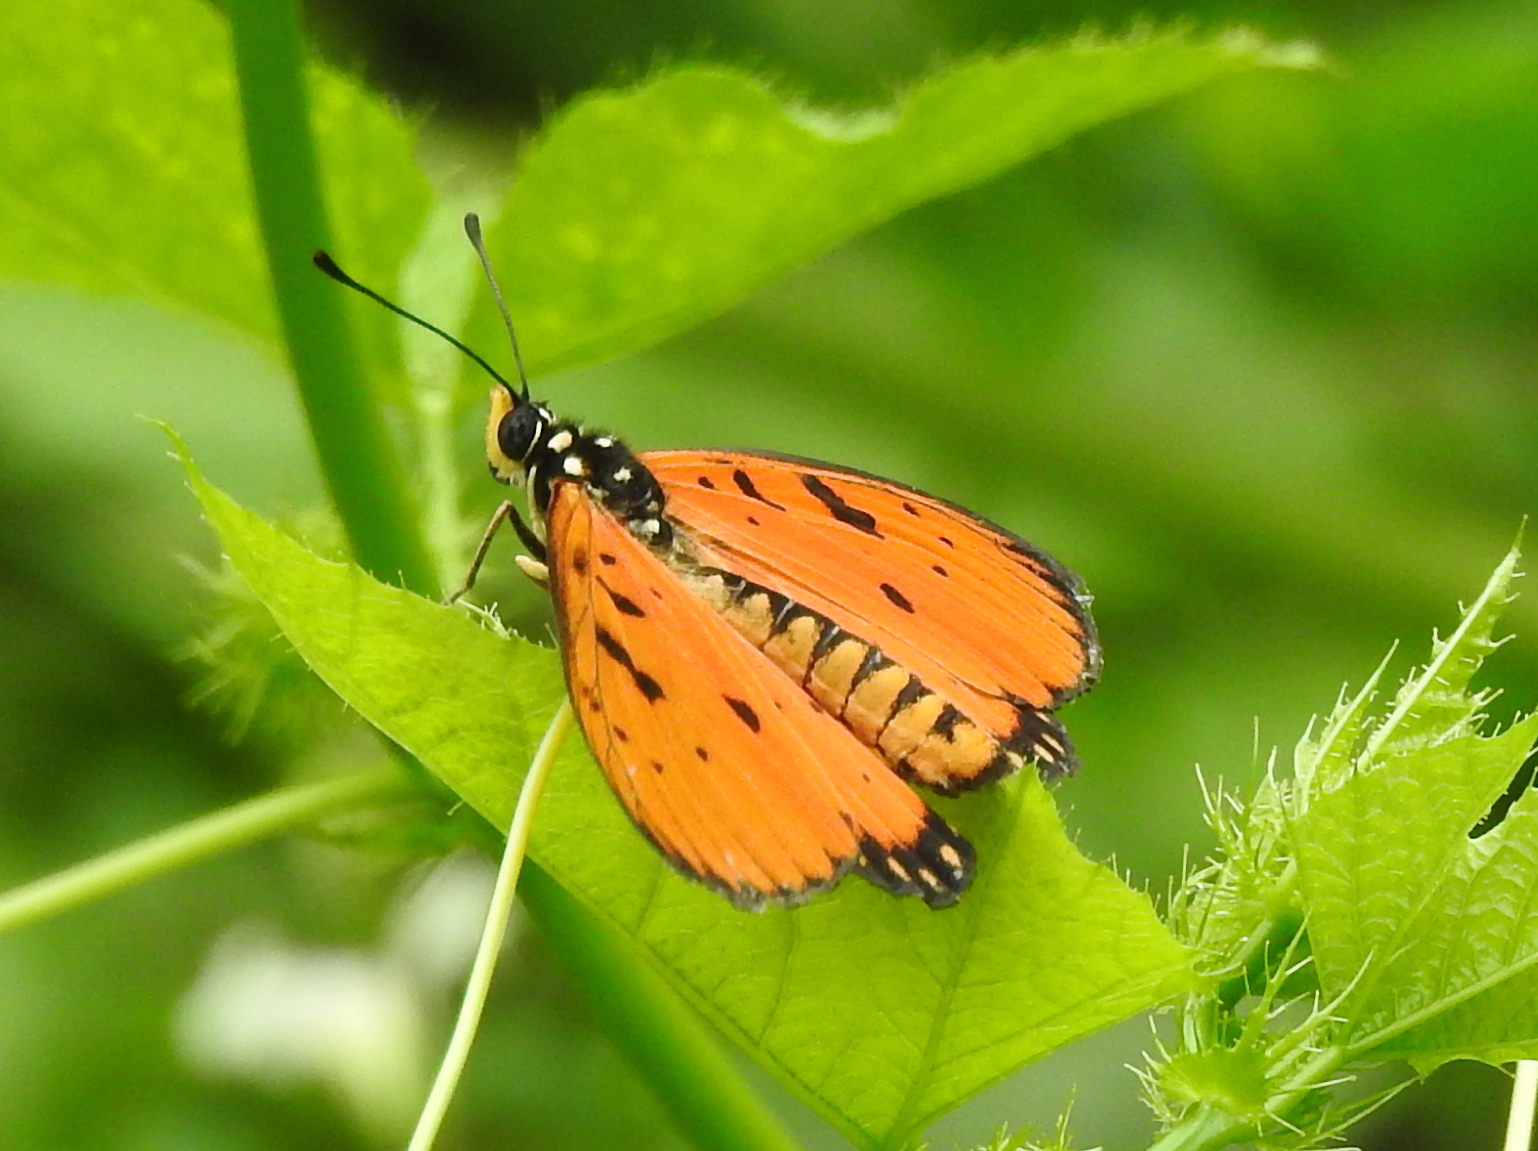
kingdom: Animalia
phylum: Arthropoda
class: Insecta
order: Lepidoptera
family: Nymphalidae
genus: Acraea
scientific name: Acraea terpsicore
